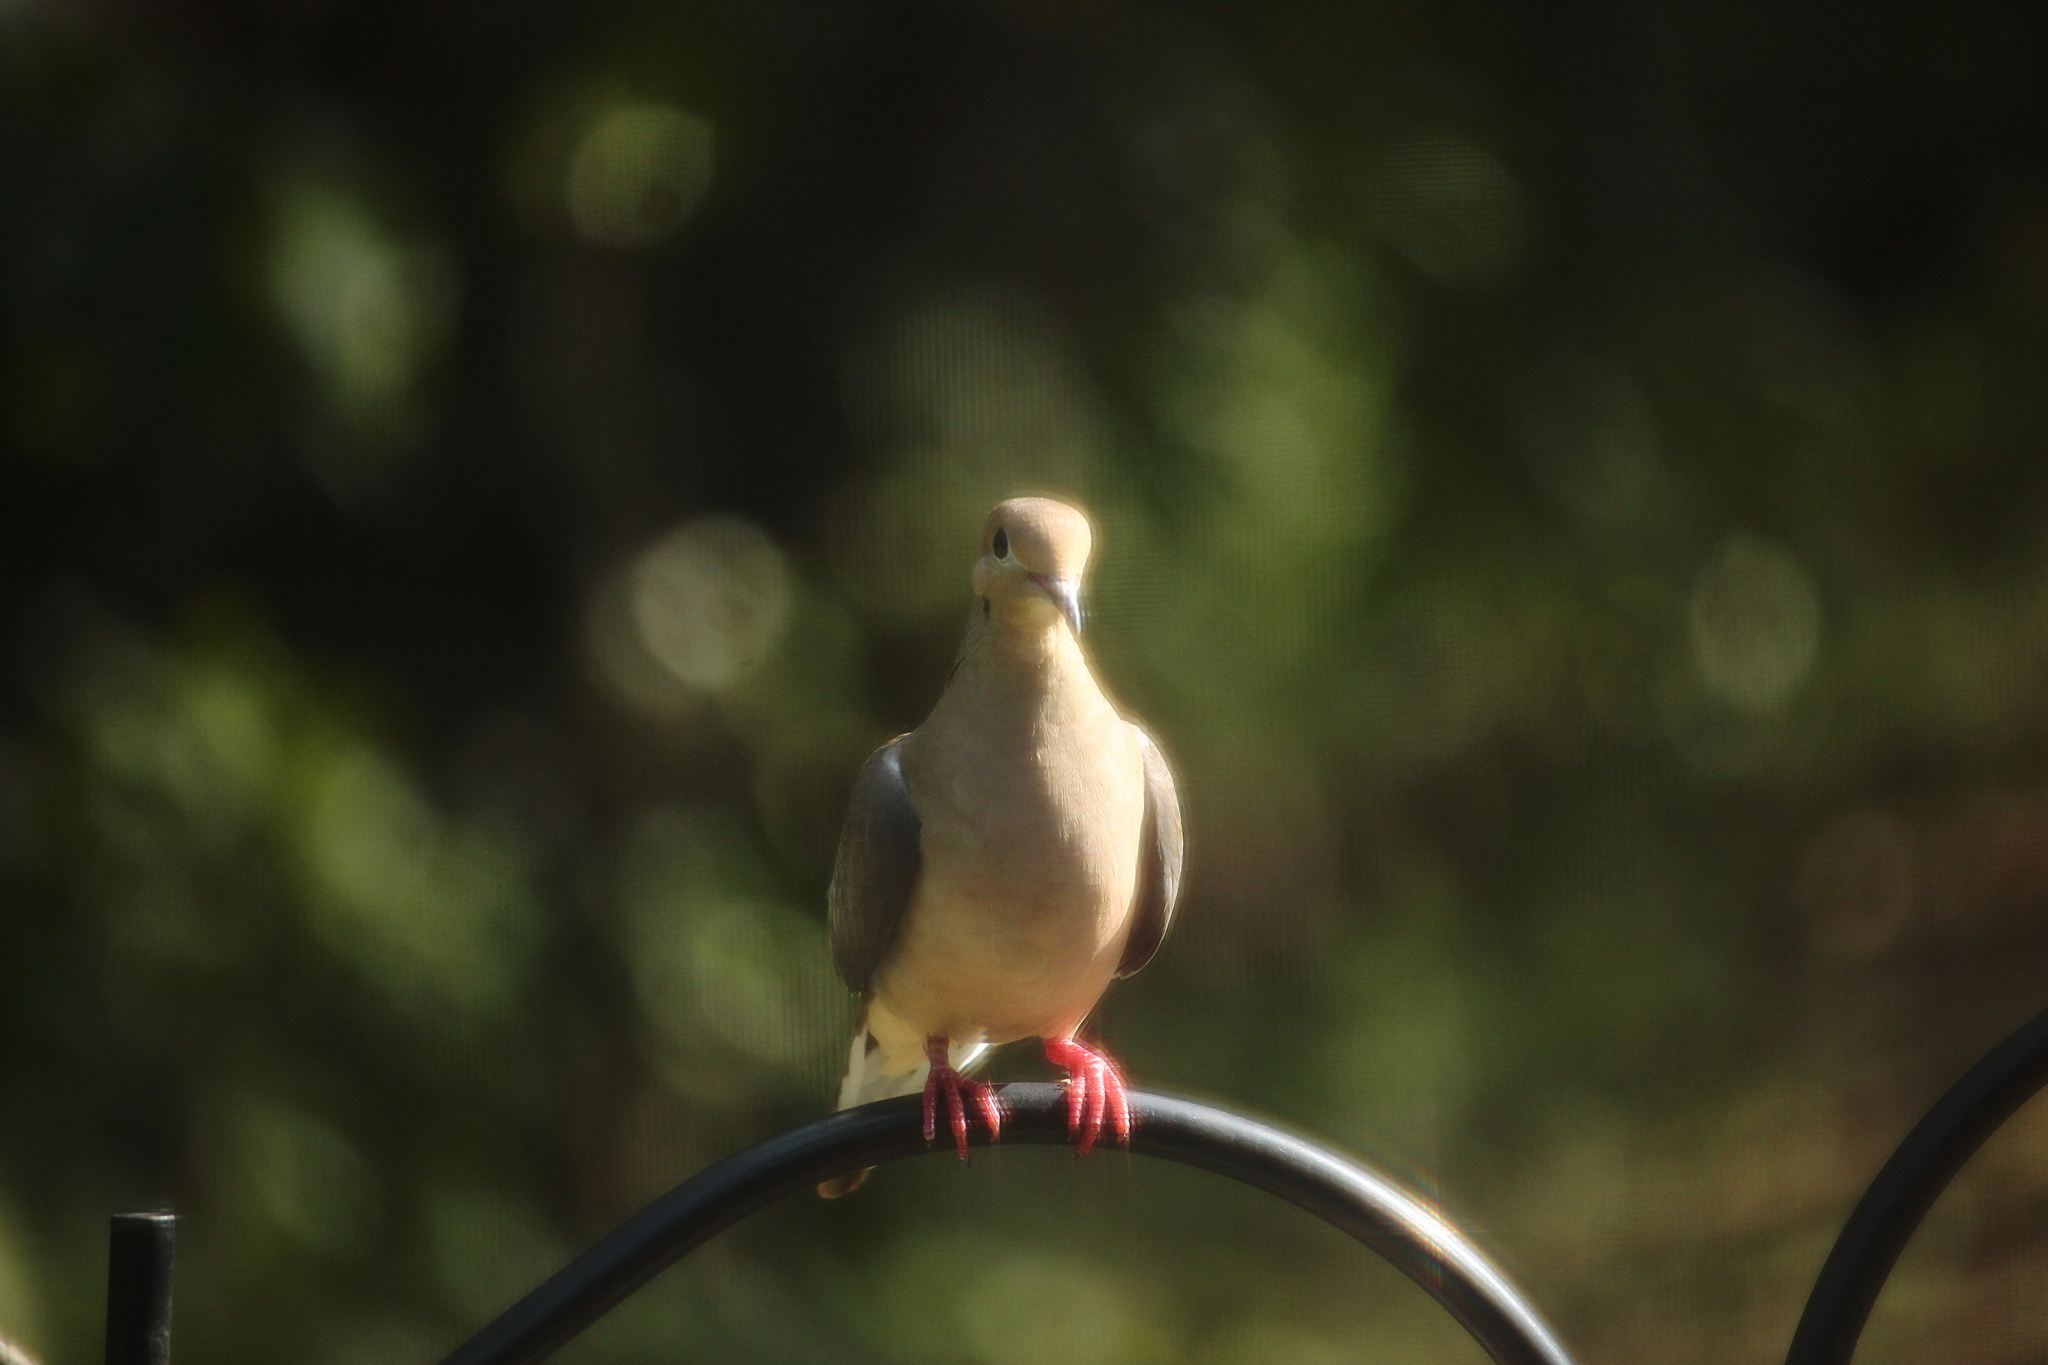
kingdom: Animalia
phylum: Chordata
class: Aves
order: Columbiformes
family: Columbidae
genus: Zenaida
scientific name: Zenaida macroura
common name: Mourning dove
